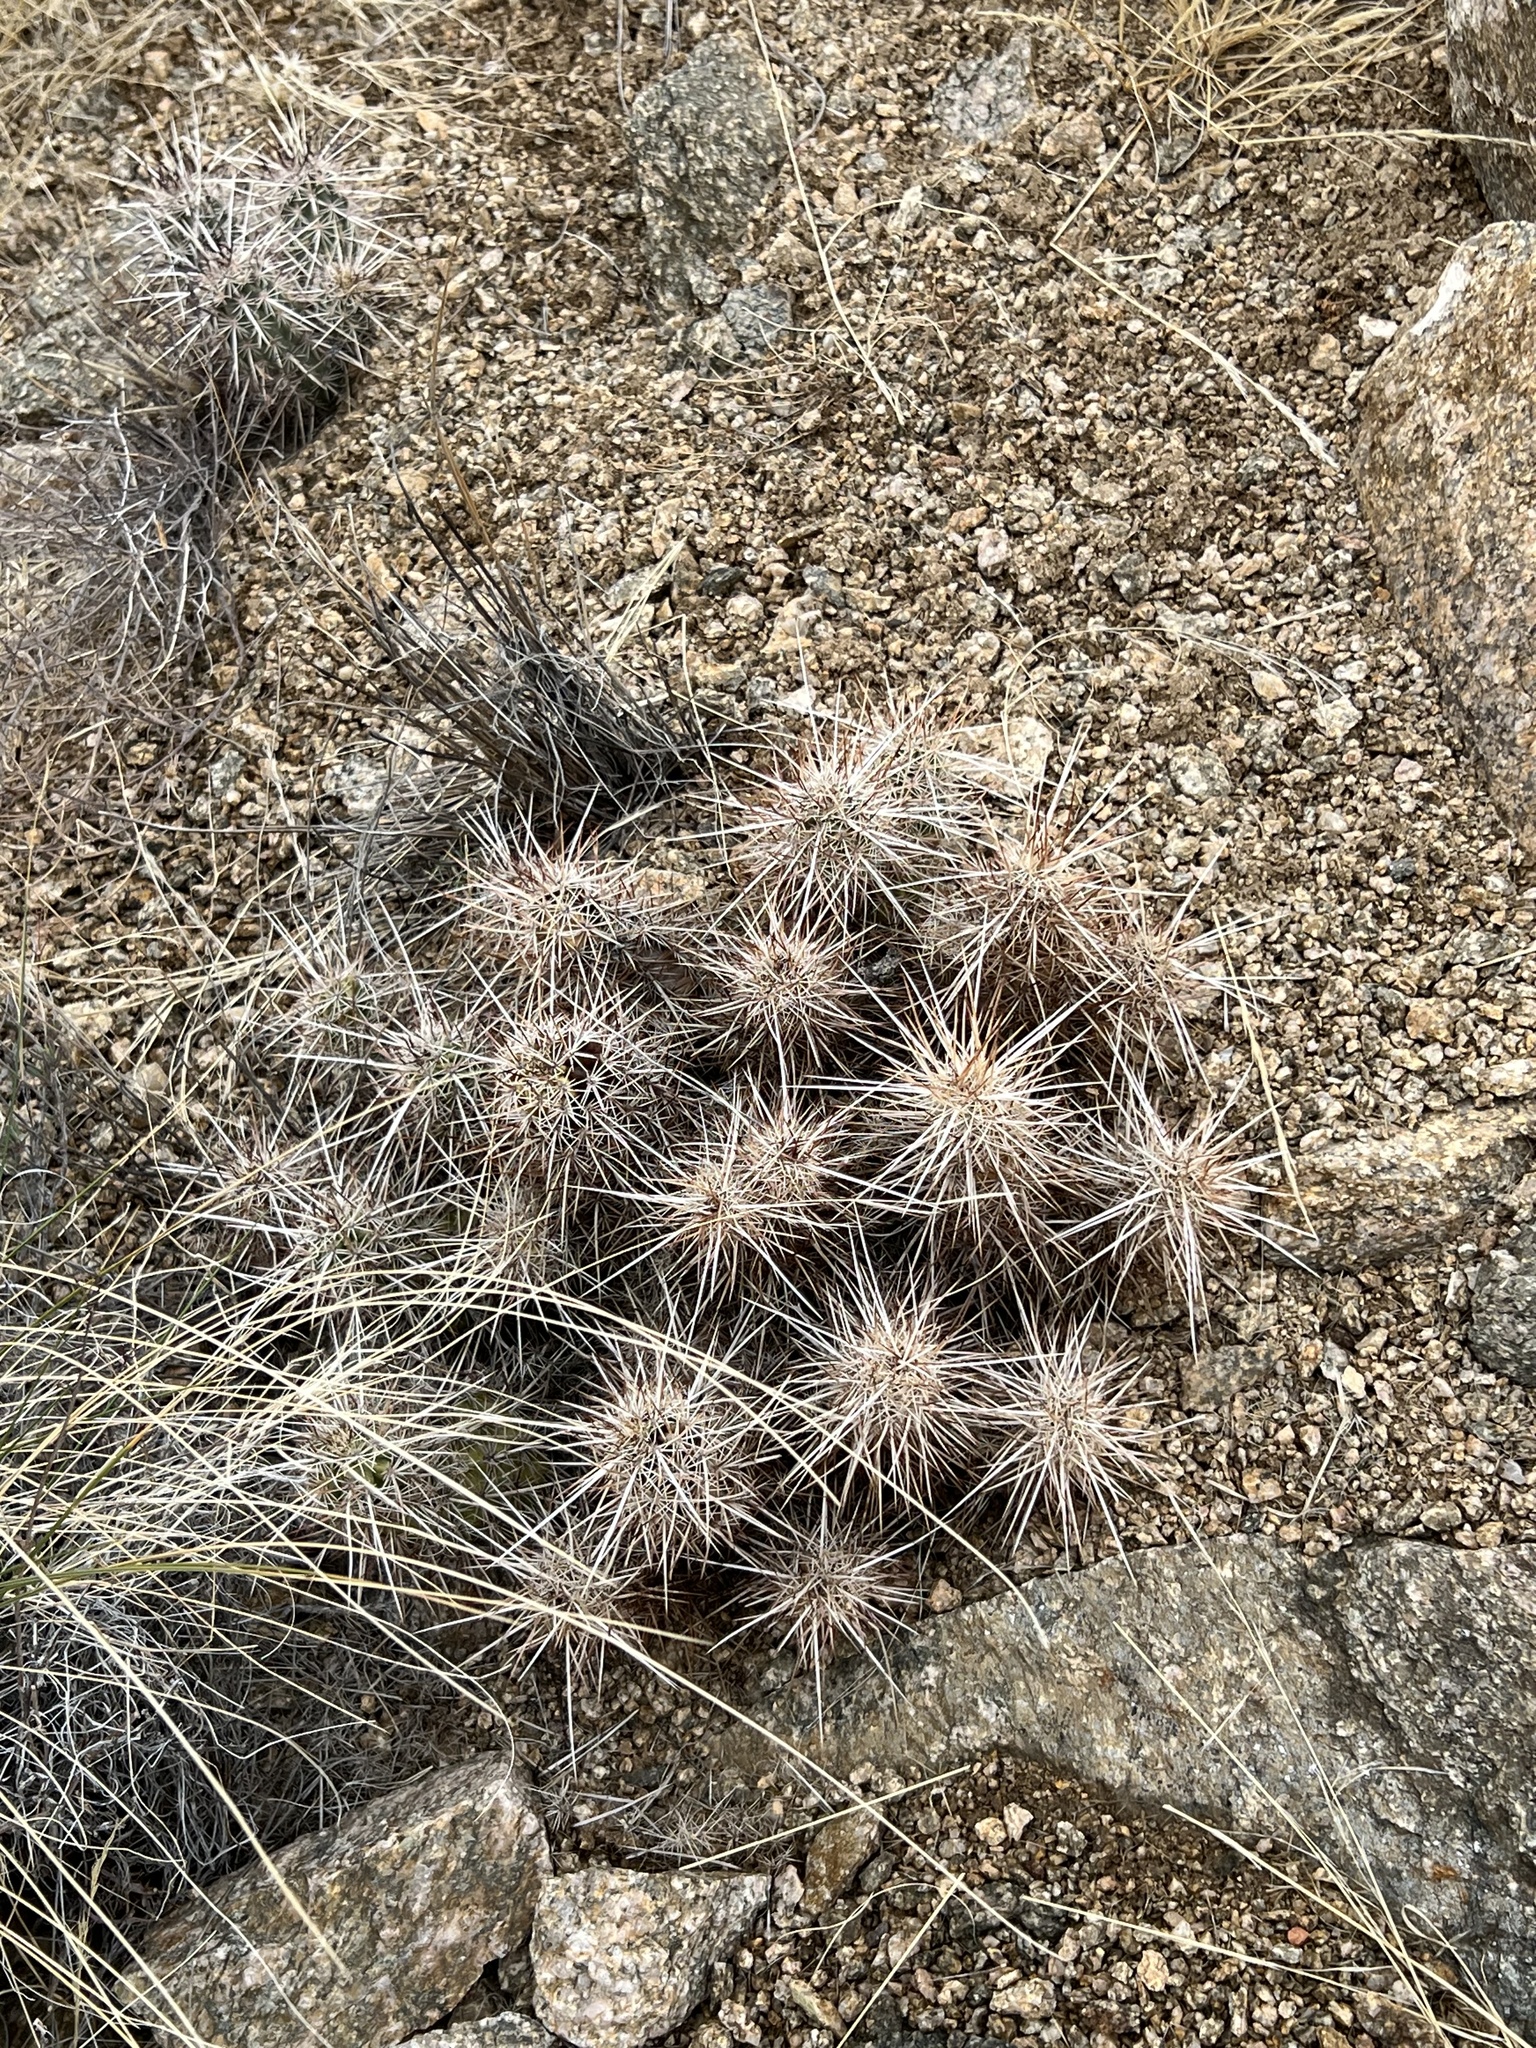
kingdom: Plantae
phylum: Tracheophyta
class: Magnoliopsida
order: Caryophyllales
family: Cactaceae
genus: Echinocereus
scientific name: Echinocereus engelmannii
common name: Engelmann's hedgehog cactus
